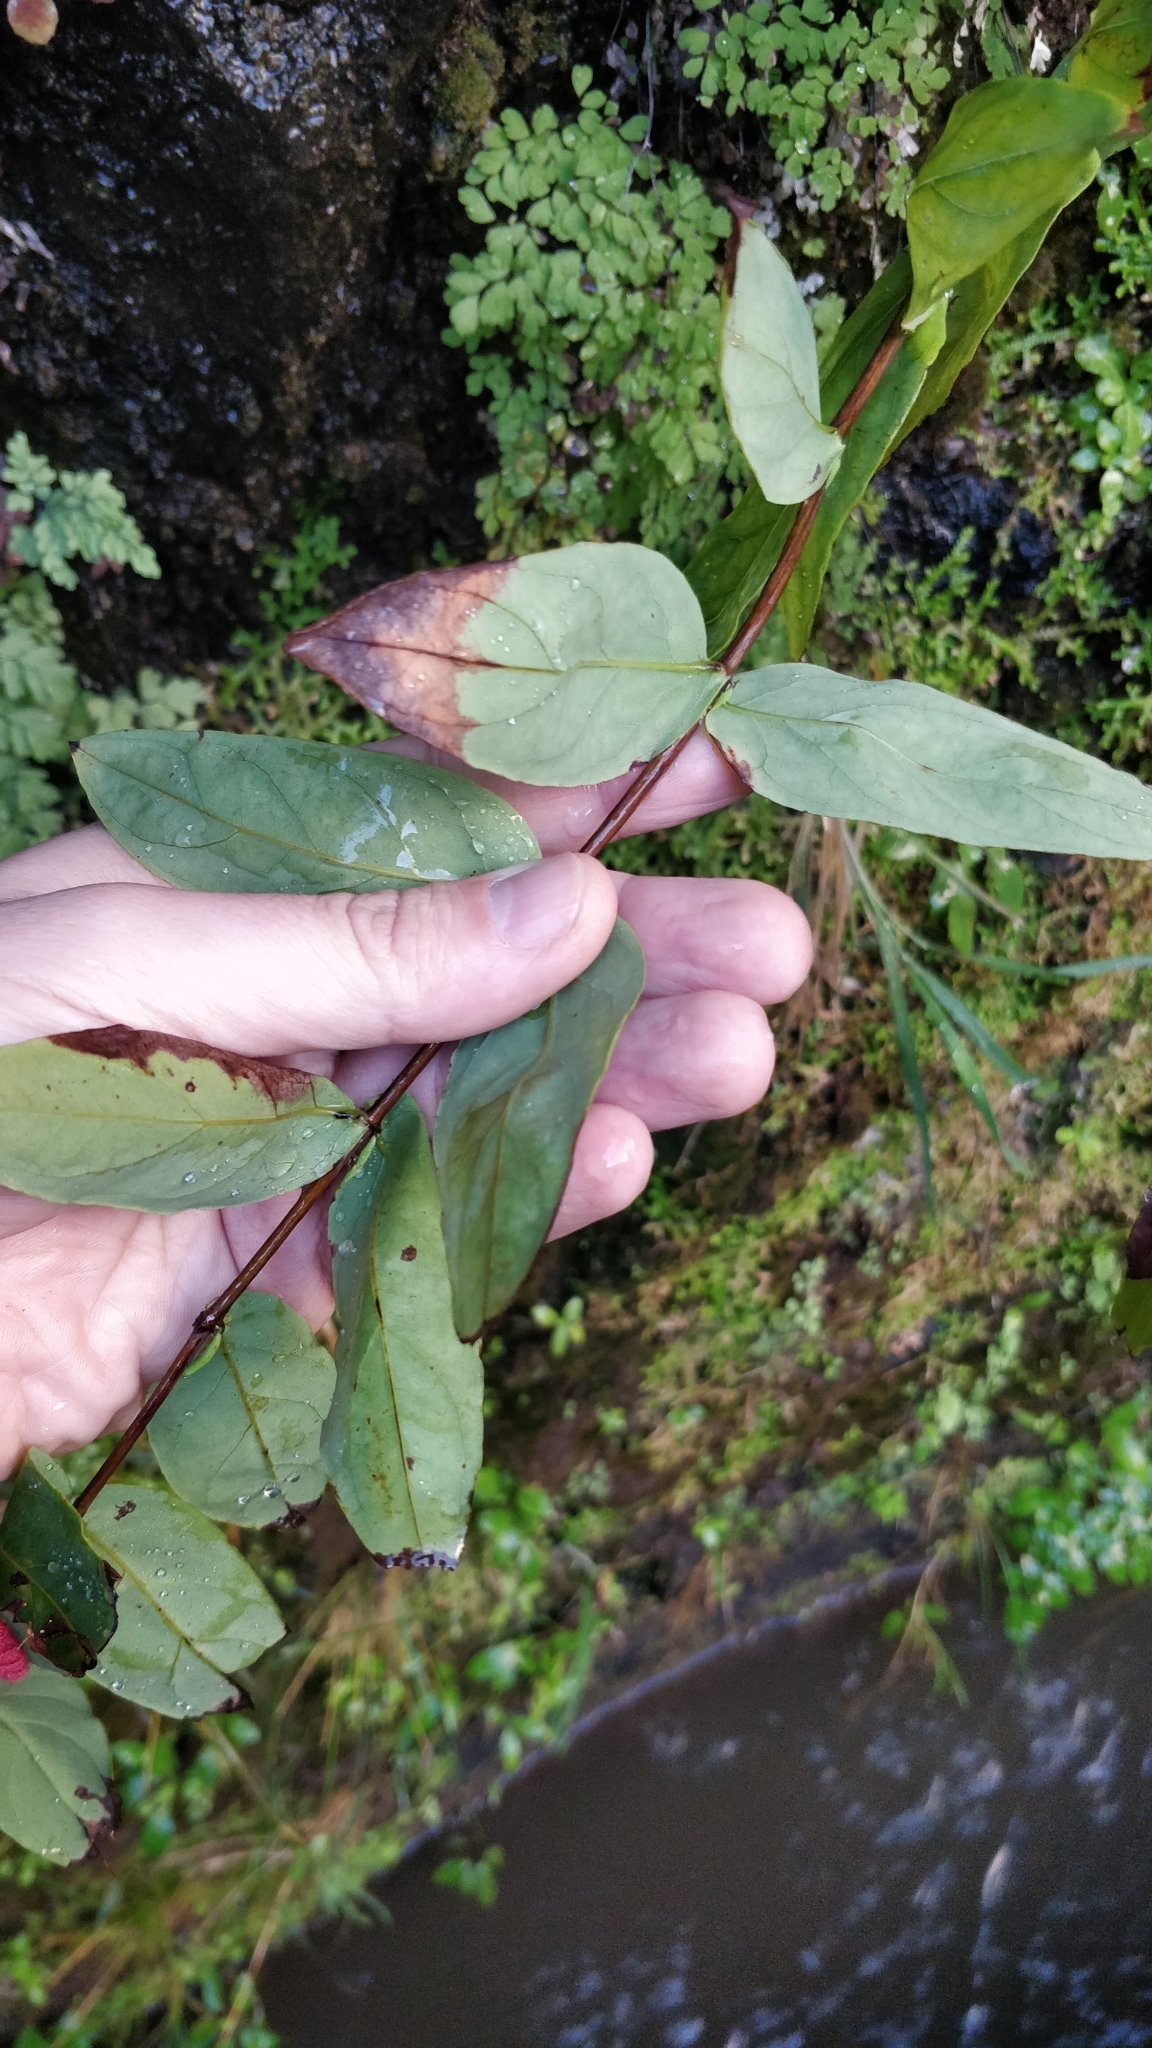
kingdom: Plantae
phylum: Tracheophyta
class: Magnoliopsida
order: Malpighiales
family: Hypericaceae
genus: Hypericum
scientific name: Hypericum grandifolium
